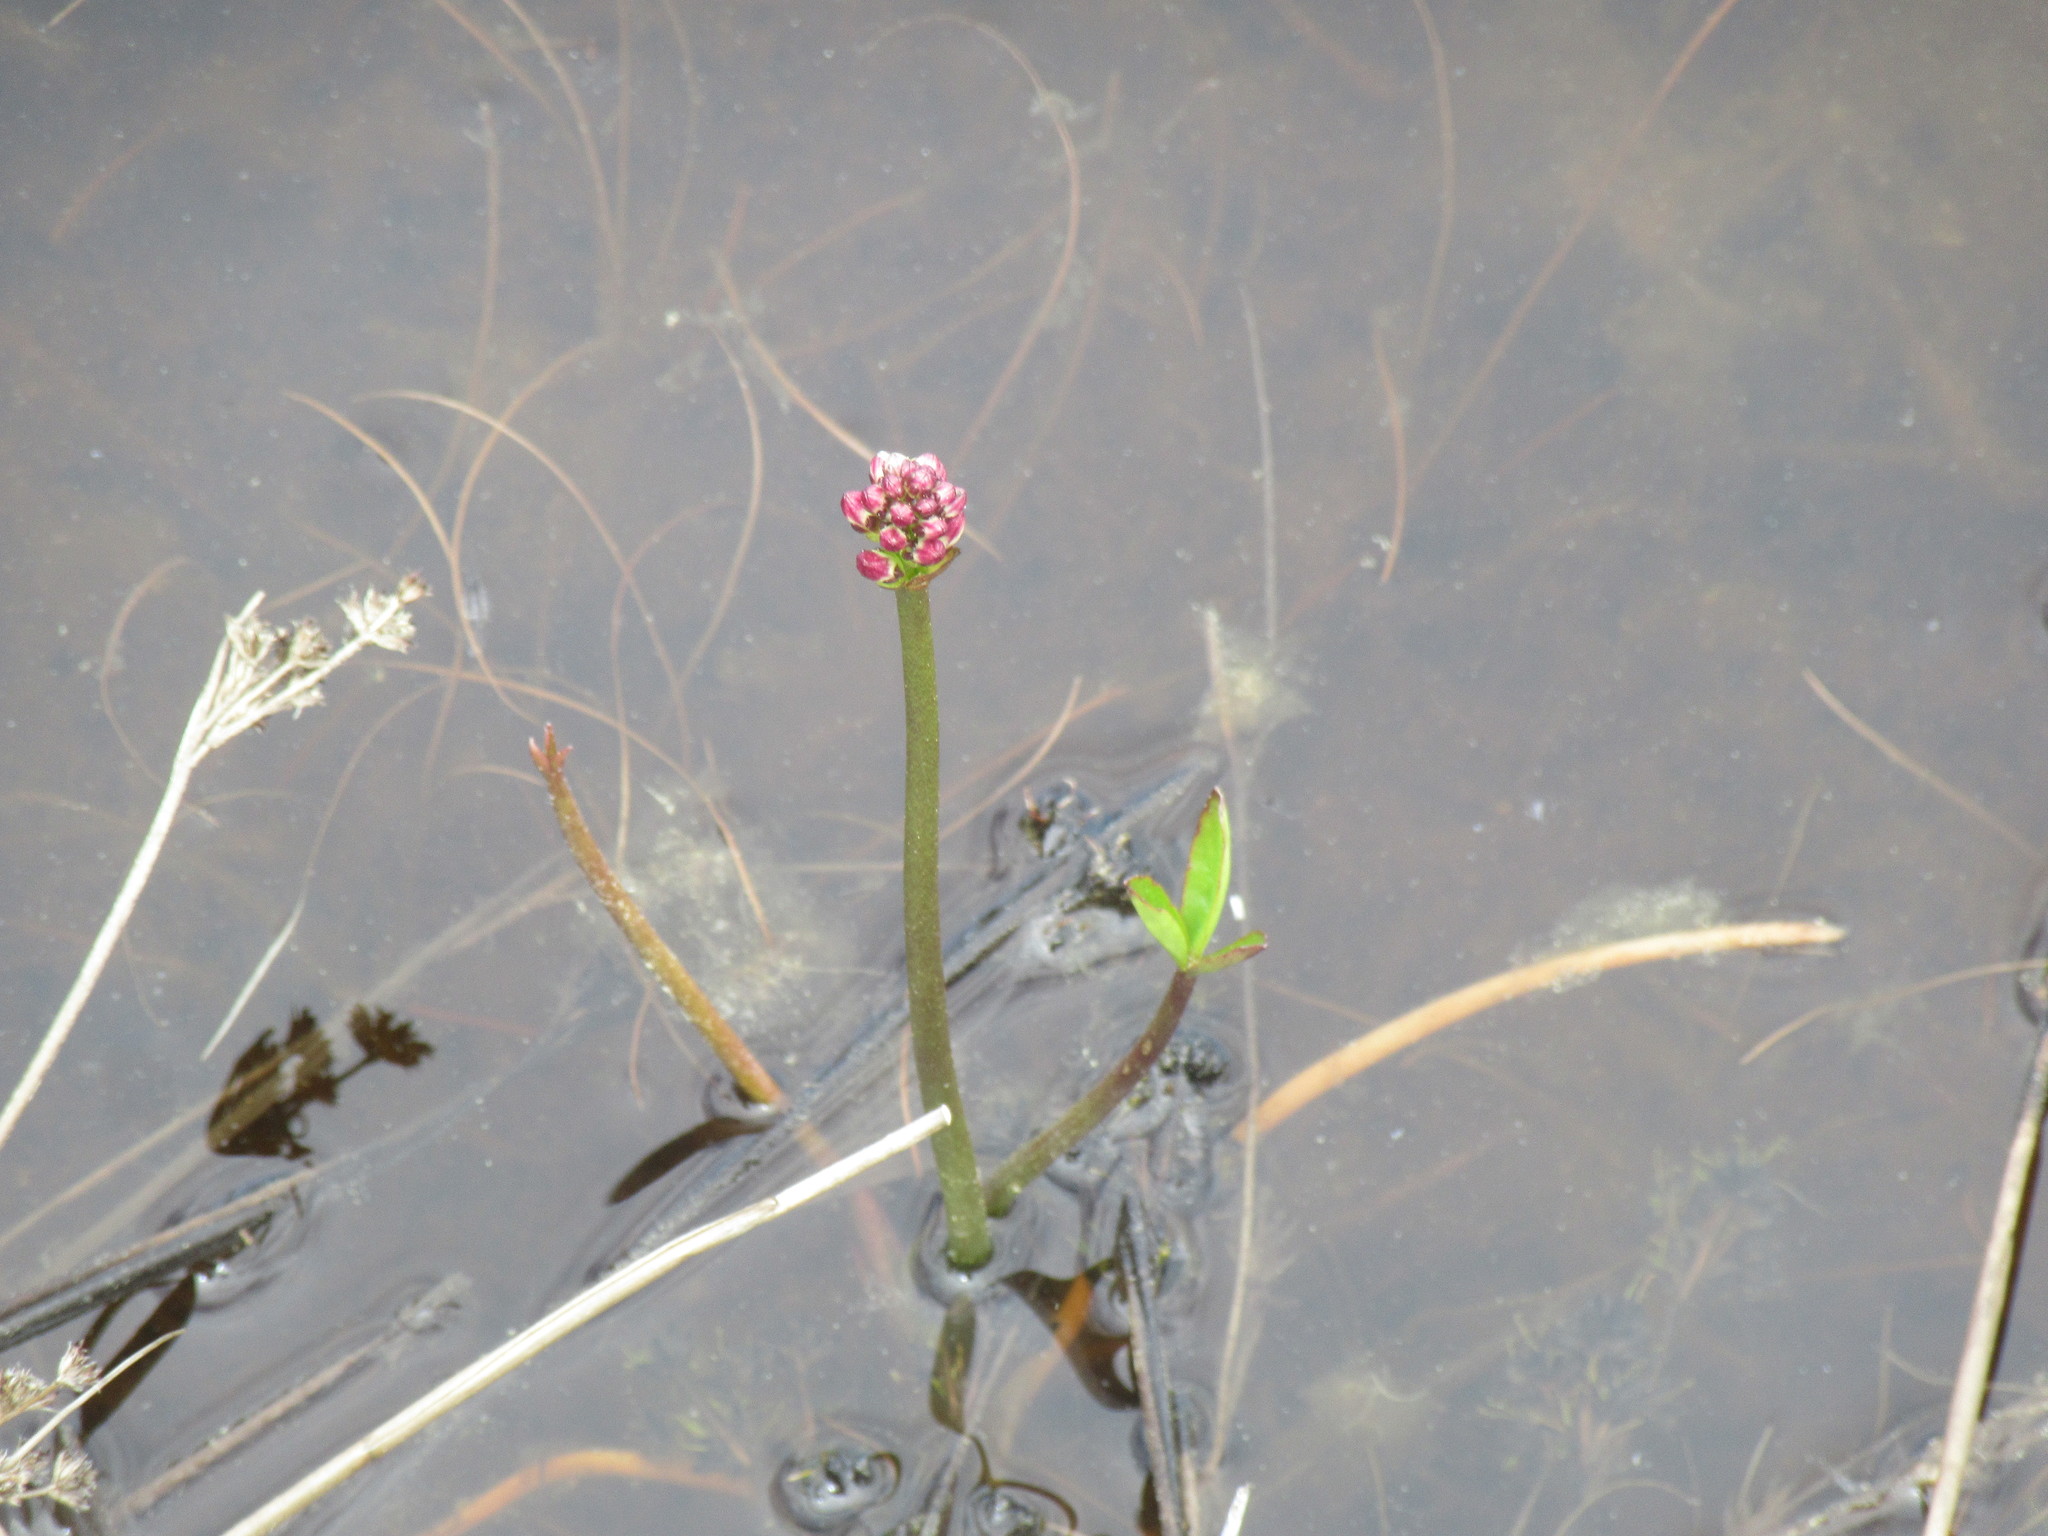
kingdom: Plantae
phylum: Tracheophyta
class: Magnoliopsida
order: Asterales
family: Menyanthaceae
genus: Menyanthes
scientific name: Menyanthes trifoliata
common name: Bogbean
